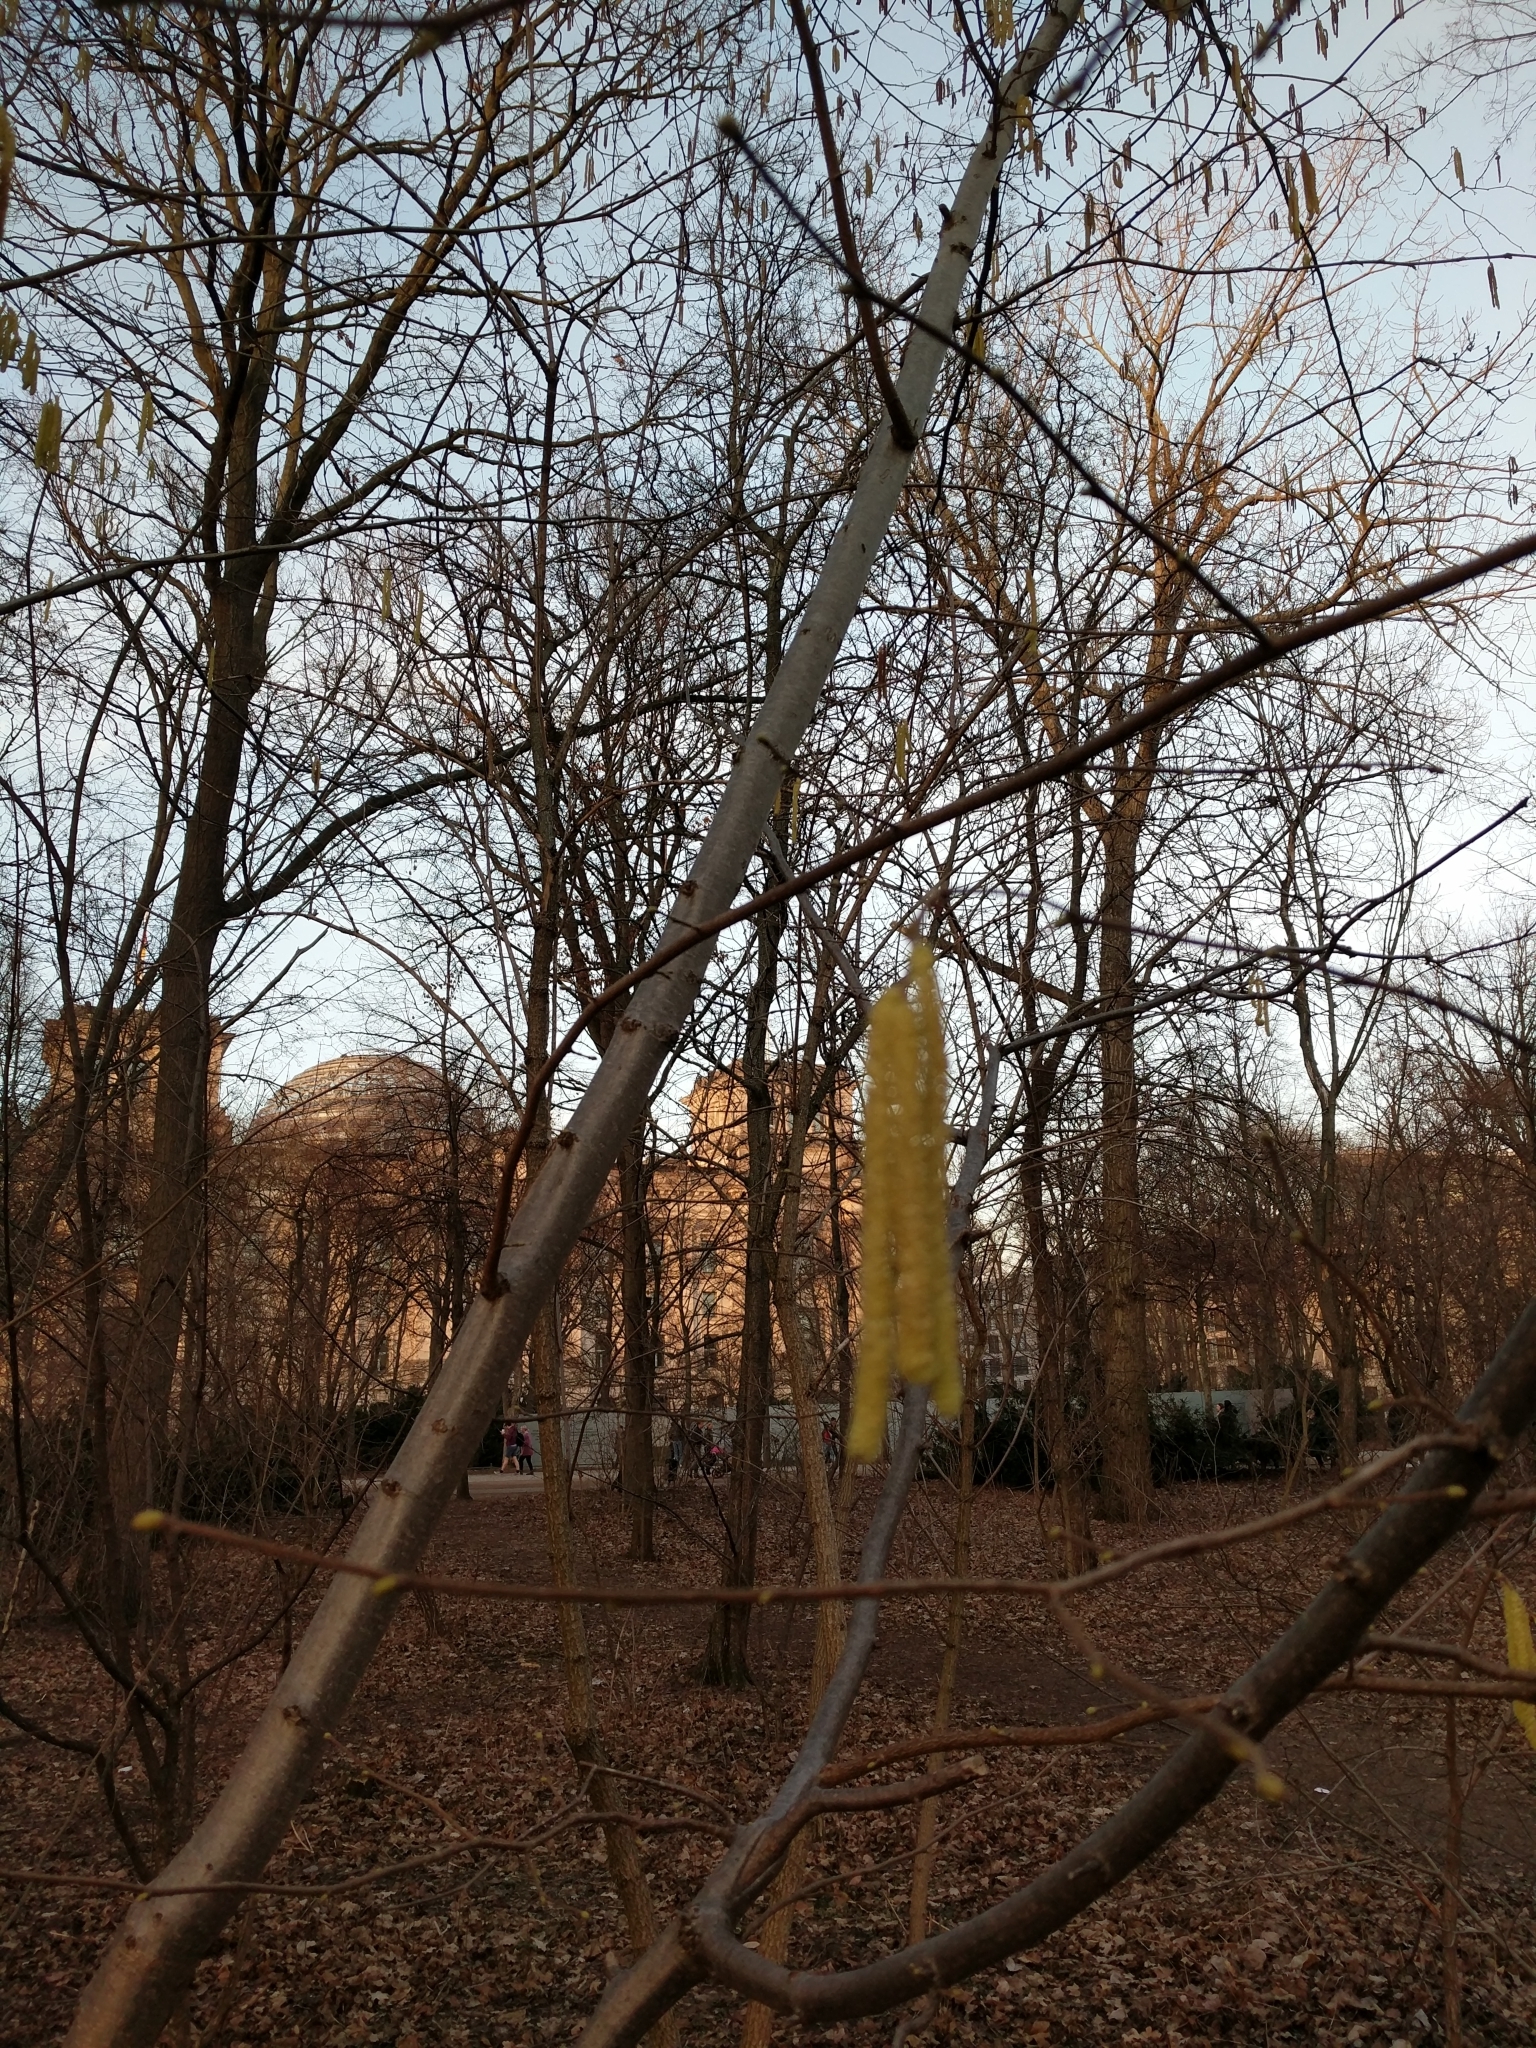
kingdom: Plantae
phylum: Tracheophyta
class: Magnoliopsida
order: Fagales
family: Betulaceae
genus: Corylus
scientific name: Corylus avellana
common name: European hazel
